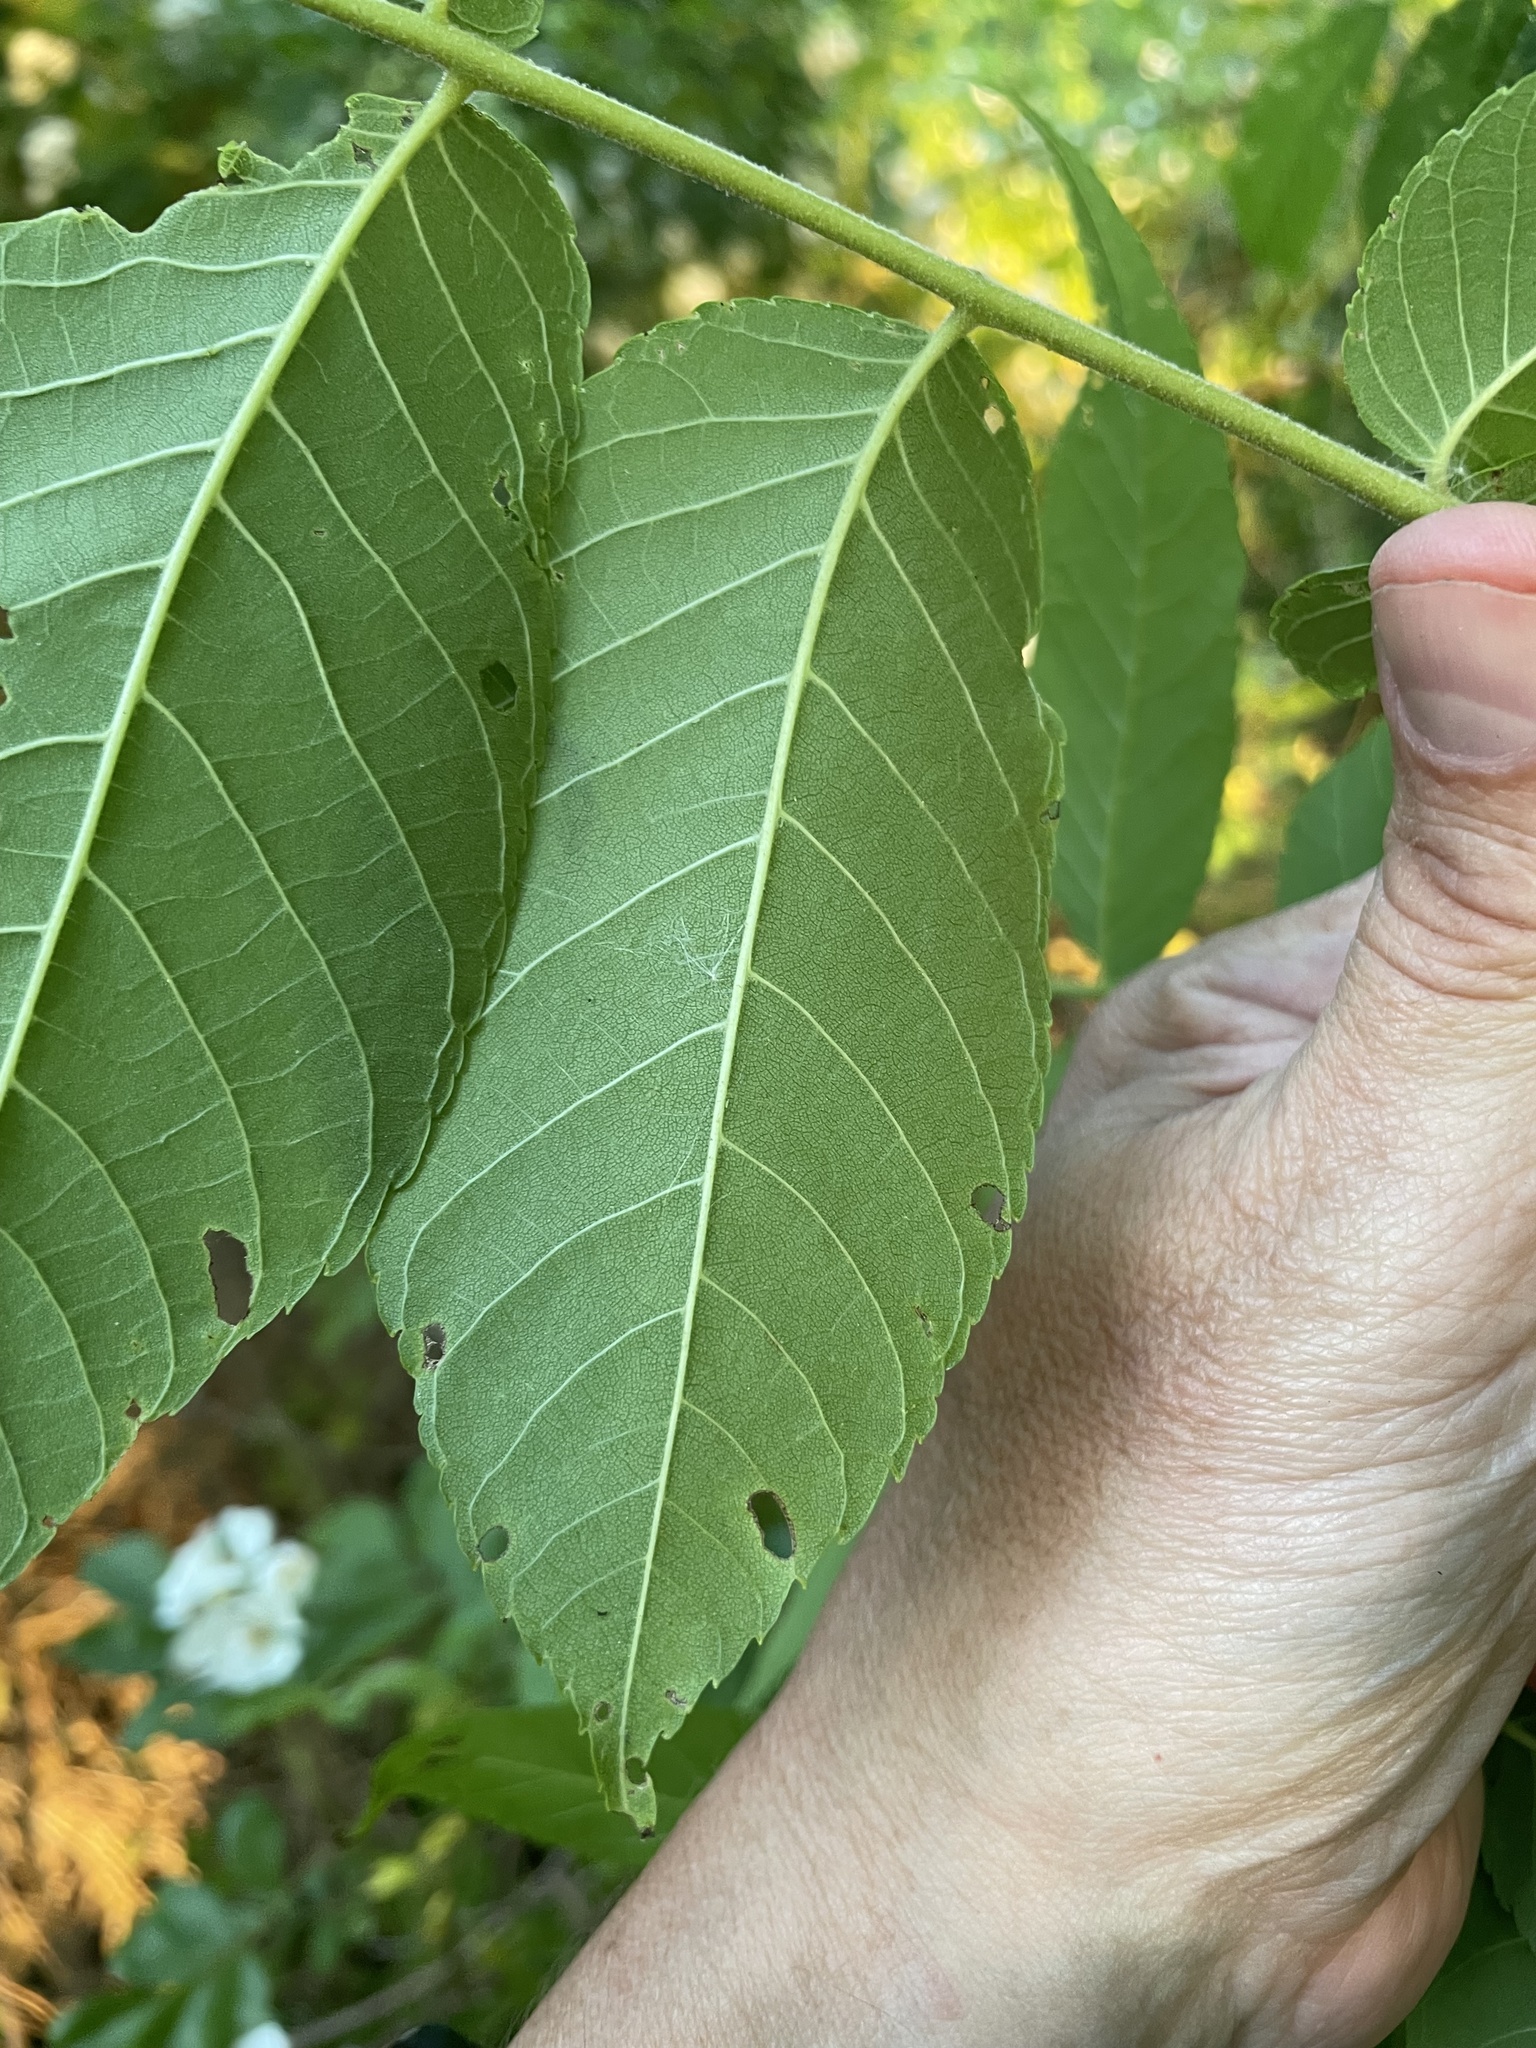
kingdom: Plantae
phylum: Tracheophyta
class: Magnoliopsida
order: Fagales
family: Juglandaceae
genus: Juglans
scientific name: Juglans nigra
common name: Black walnut
